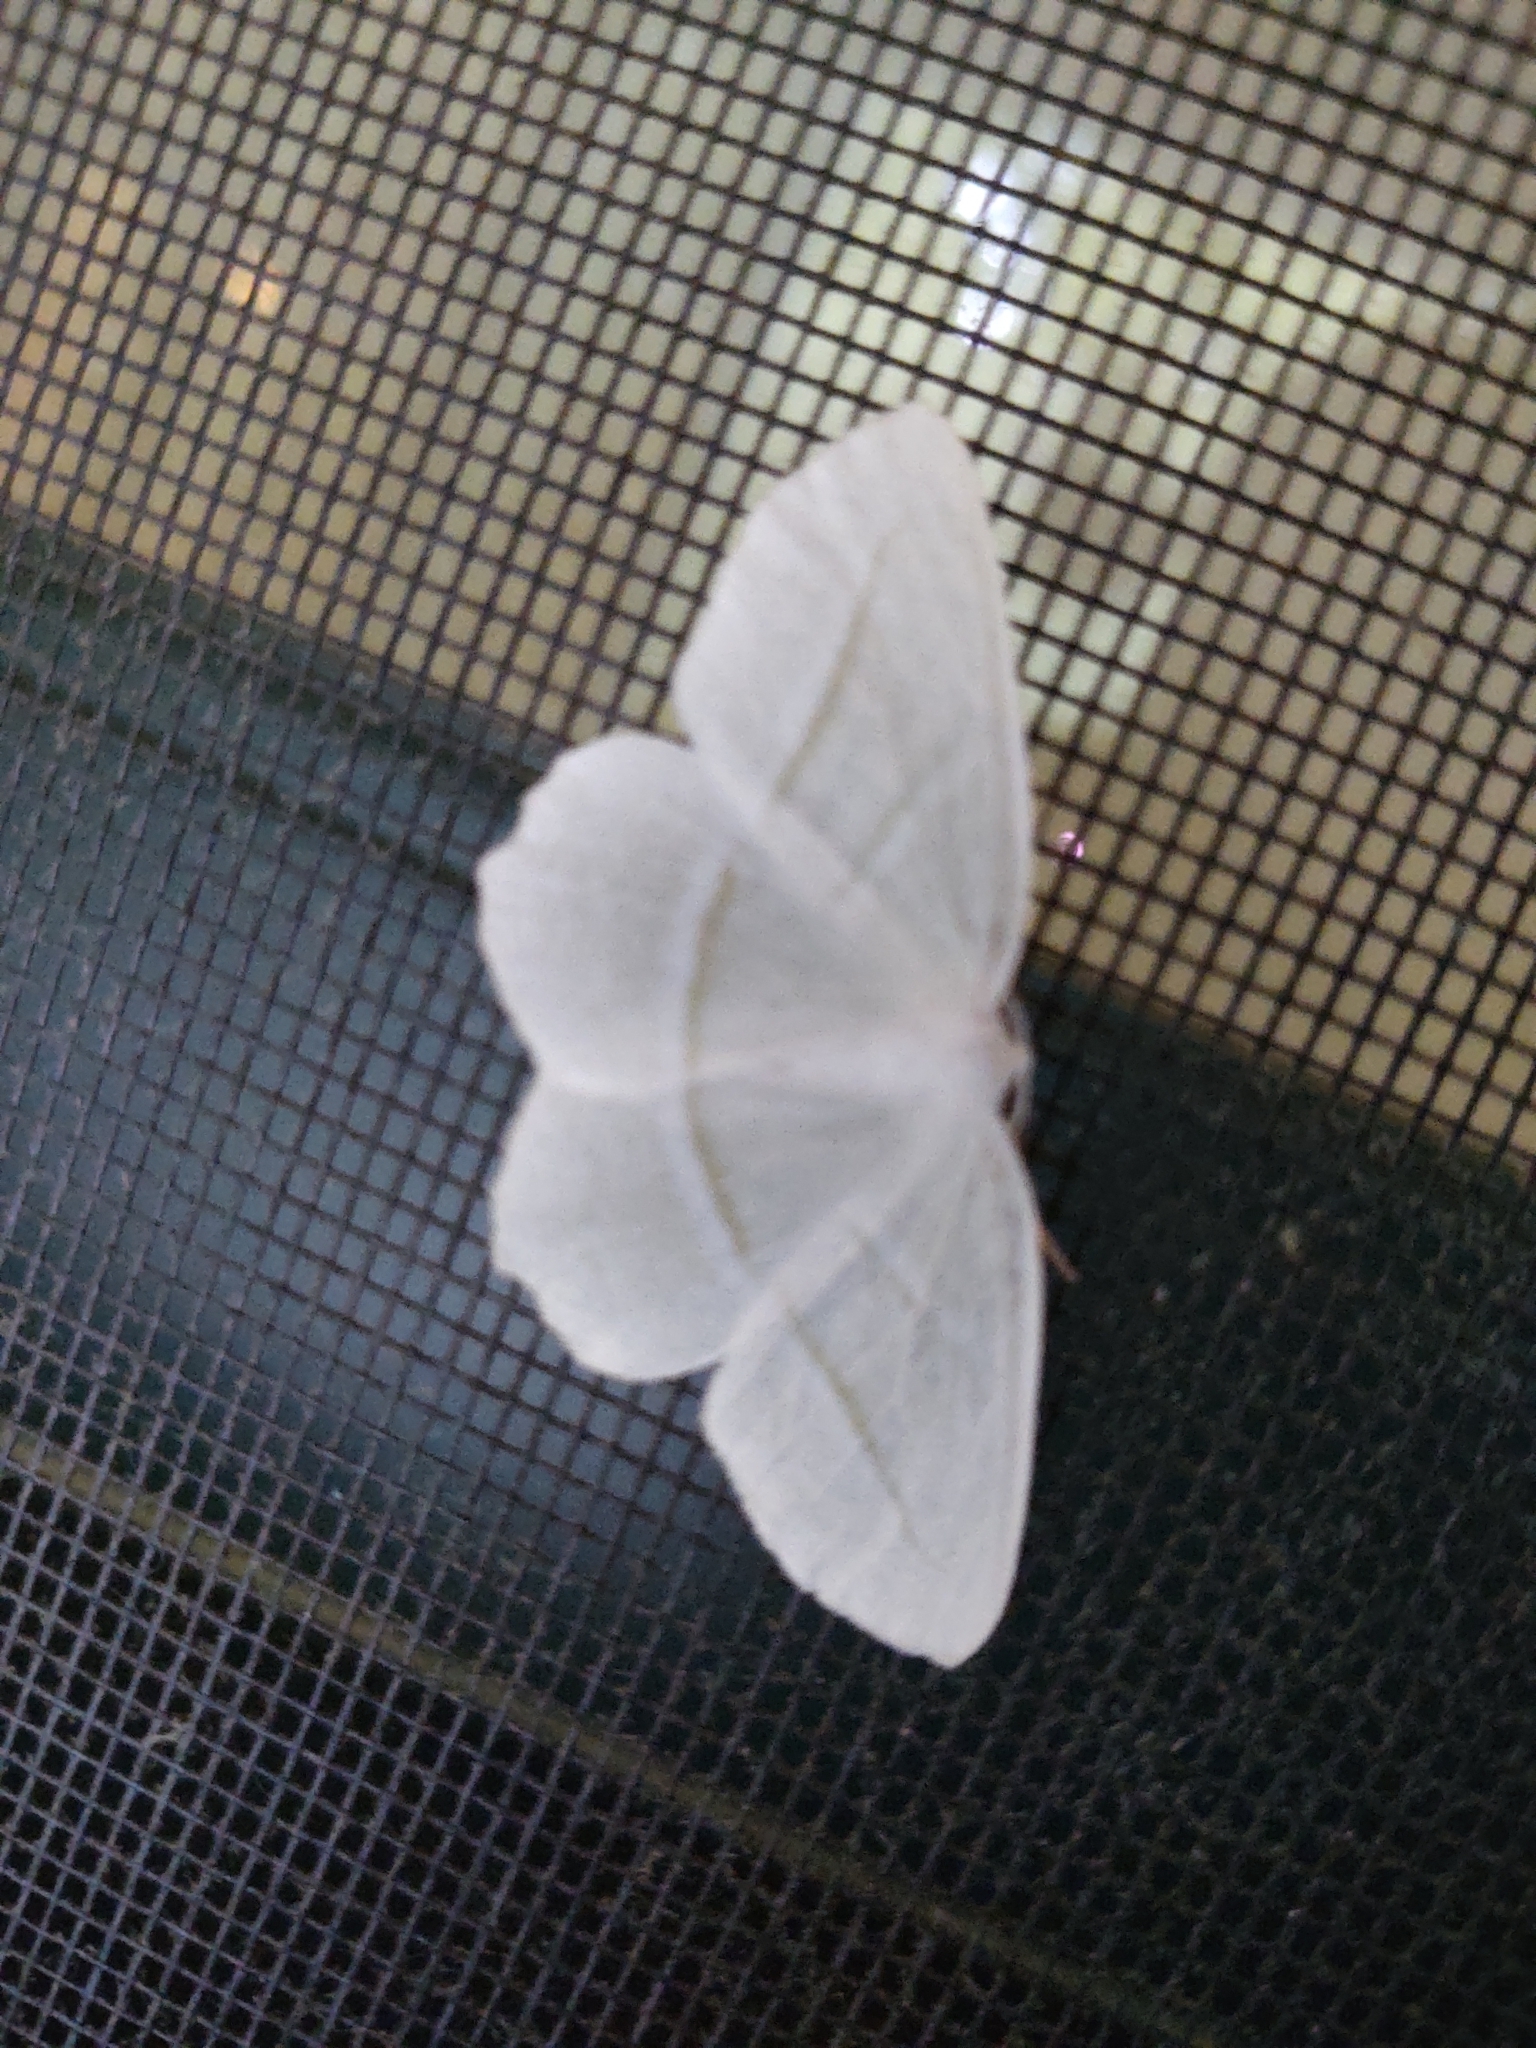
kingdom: Animalia
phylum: Arthropoda
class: Insecta
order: Lepidoptera
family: Geometridae
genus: Campaea
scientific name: Campaea perlata
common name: Fringed looper
